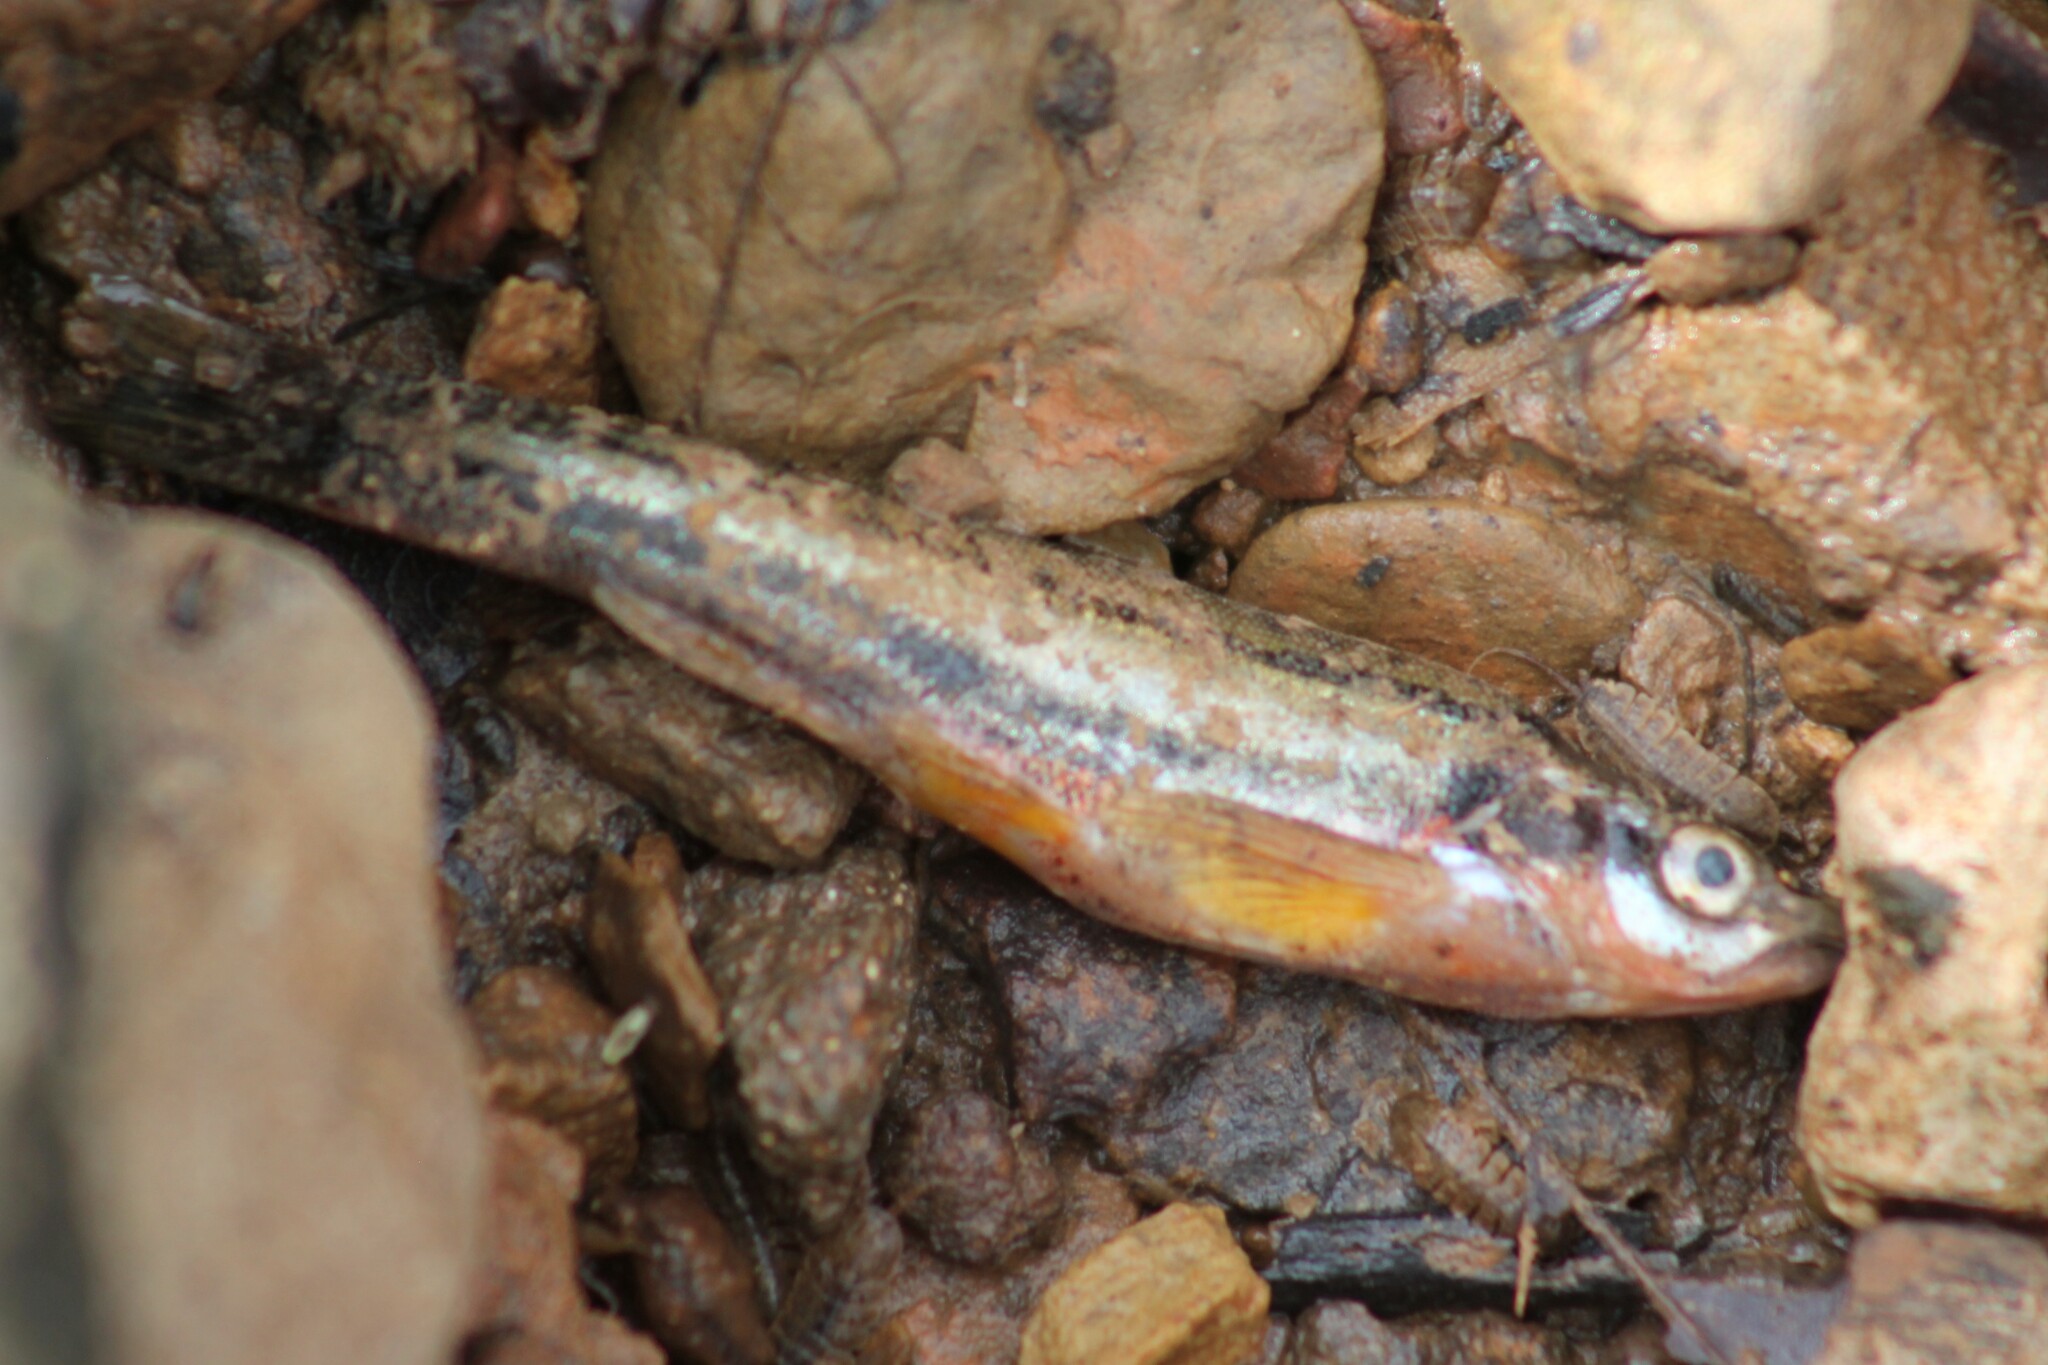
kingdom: Animalia
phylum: Chordata
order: Cypriniformes
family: Cyprinidae
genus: Chrosomus
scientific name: Chrosomus erythrogaster
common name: Southern redbelly dace
